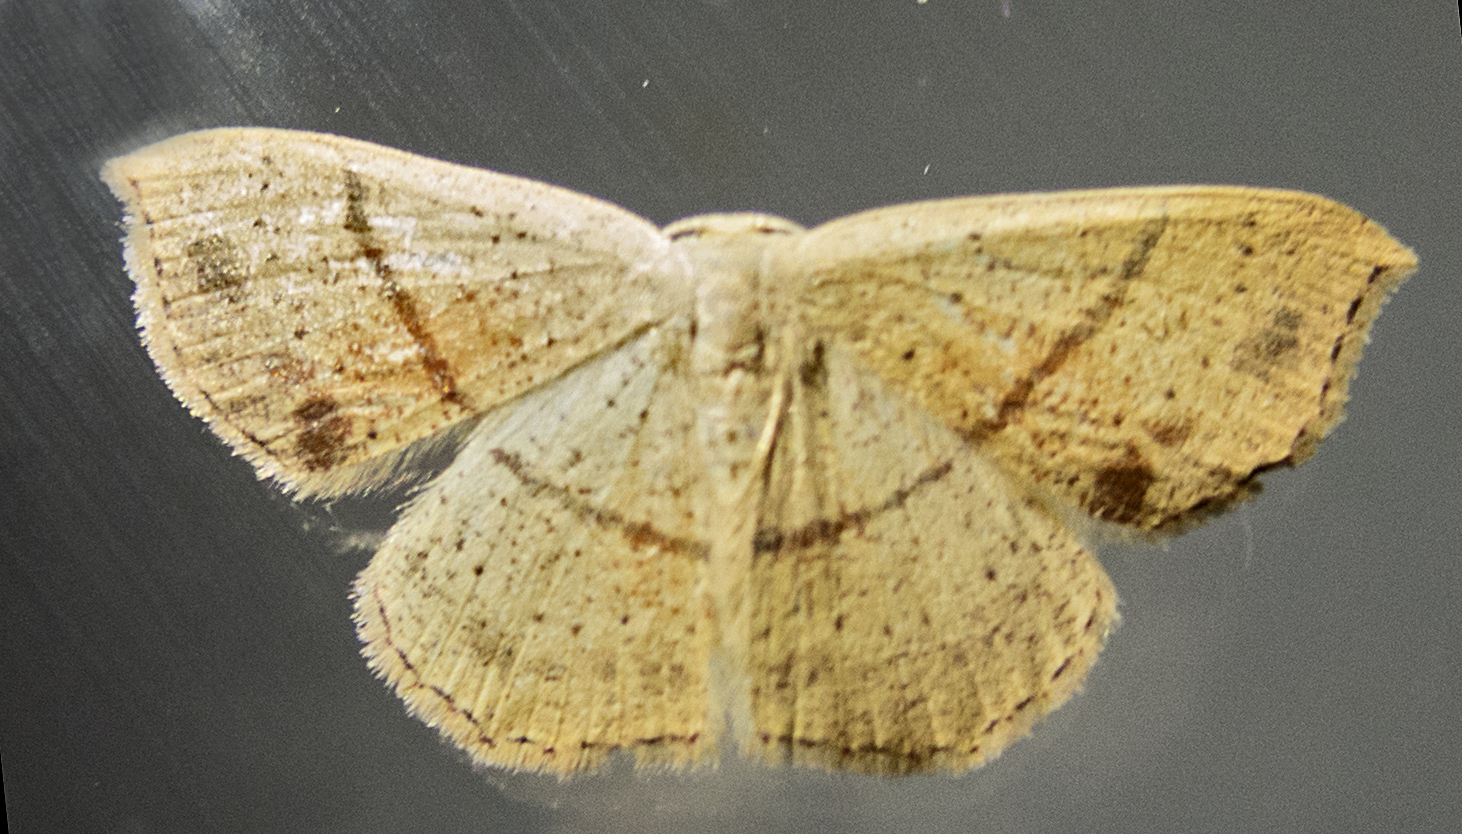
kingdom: Animalia
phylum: Arthropoda
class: Insecta
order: Lepidoptera
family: Geometridae
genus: Cyclophora
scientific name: Cyclophora punctaria
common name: Maiden's blush
